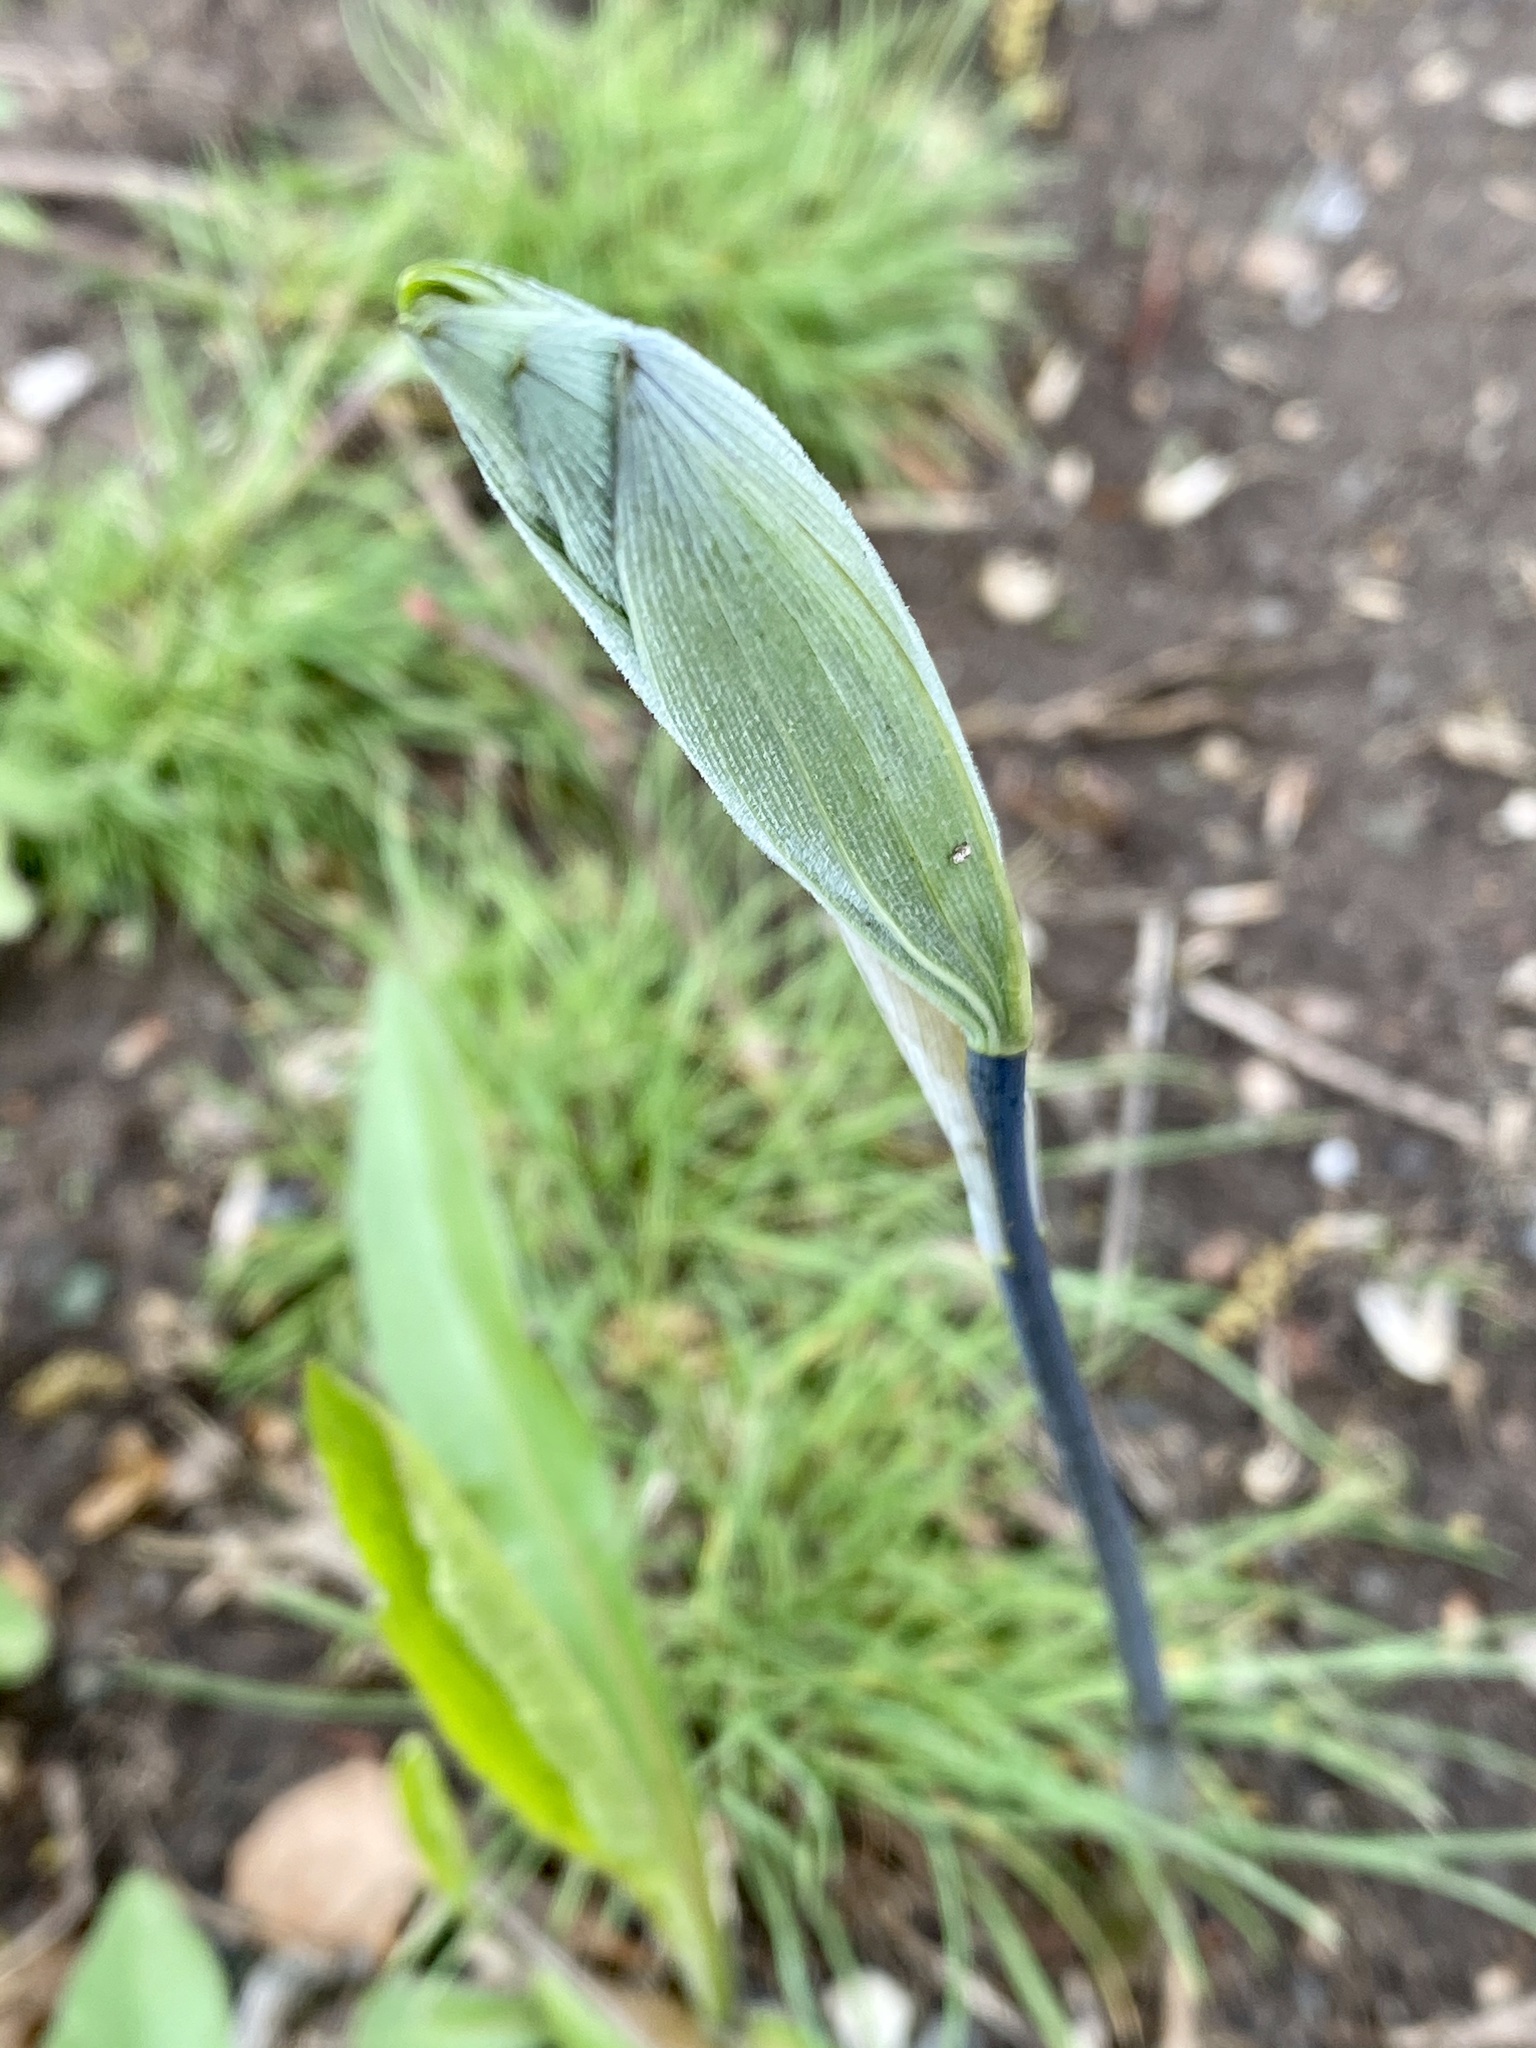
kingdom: Plantae
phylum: Tracheophyta
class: Liliopsida
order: Asparagales
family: Asparagaceae
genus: Polygonatum
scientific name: Polygonatum pubescens
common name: Downy solomon's seal
